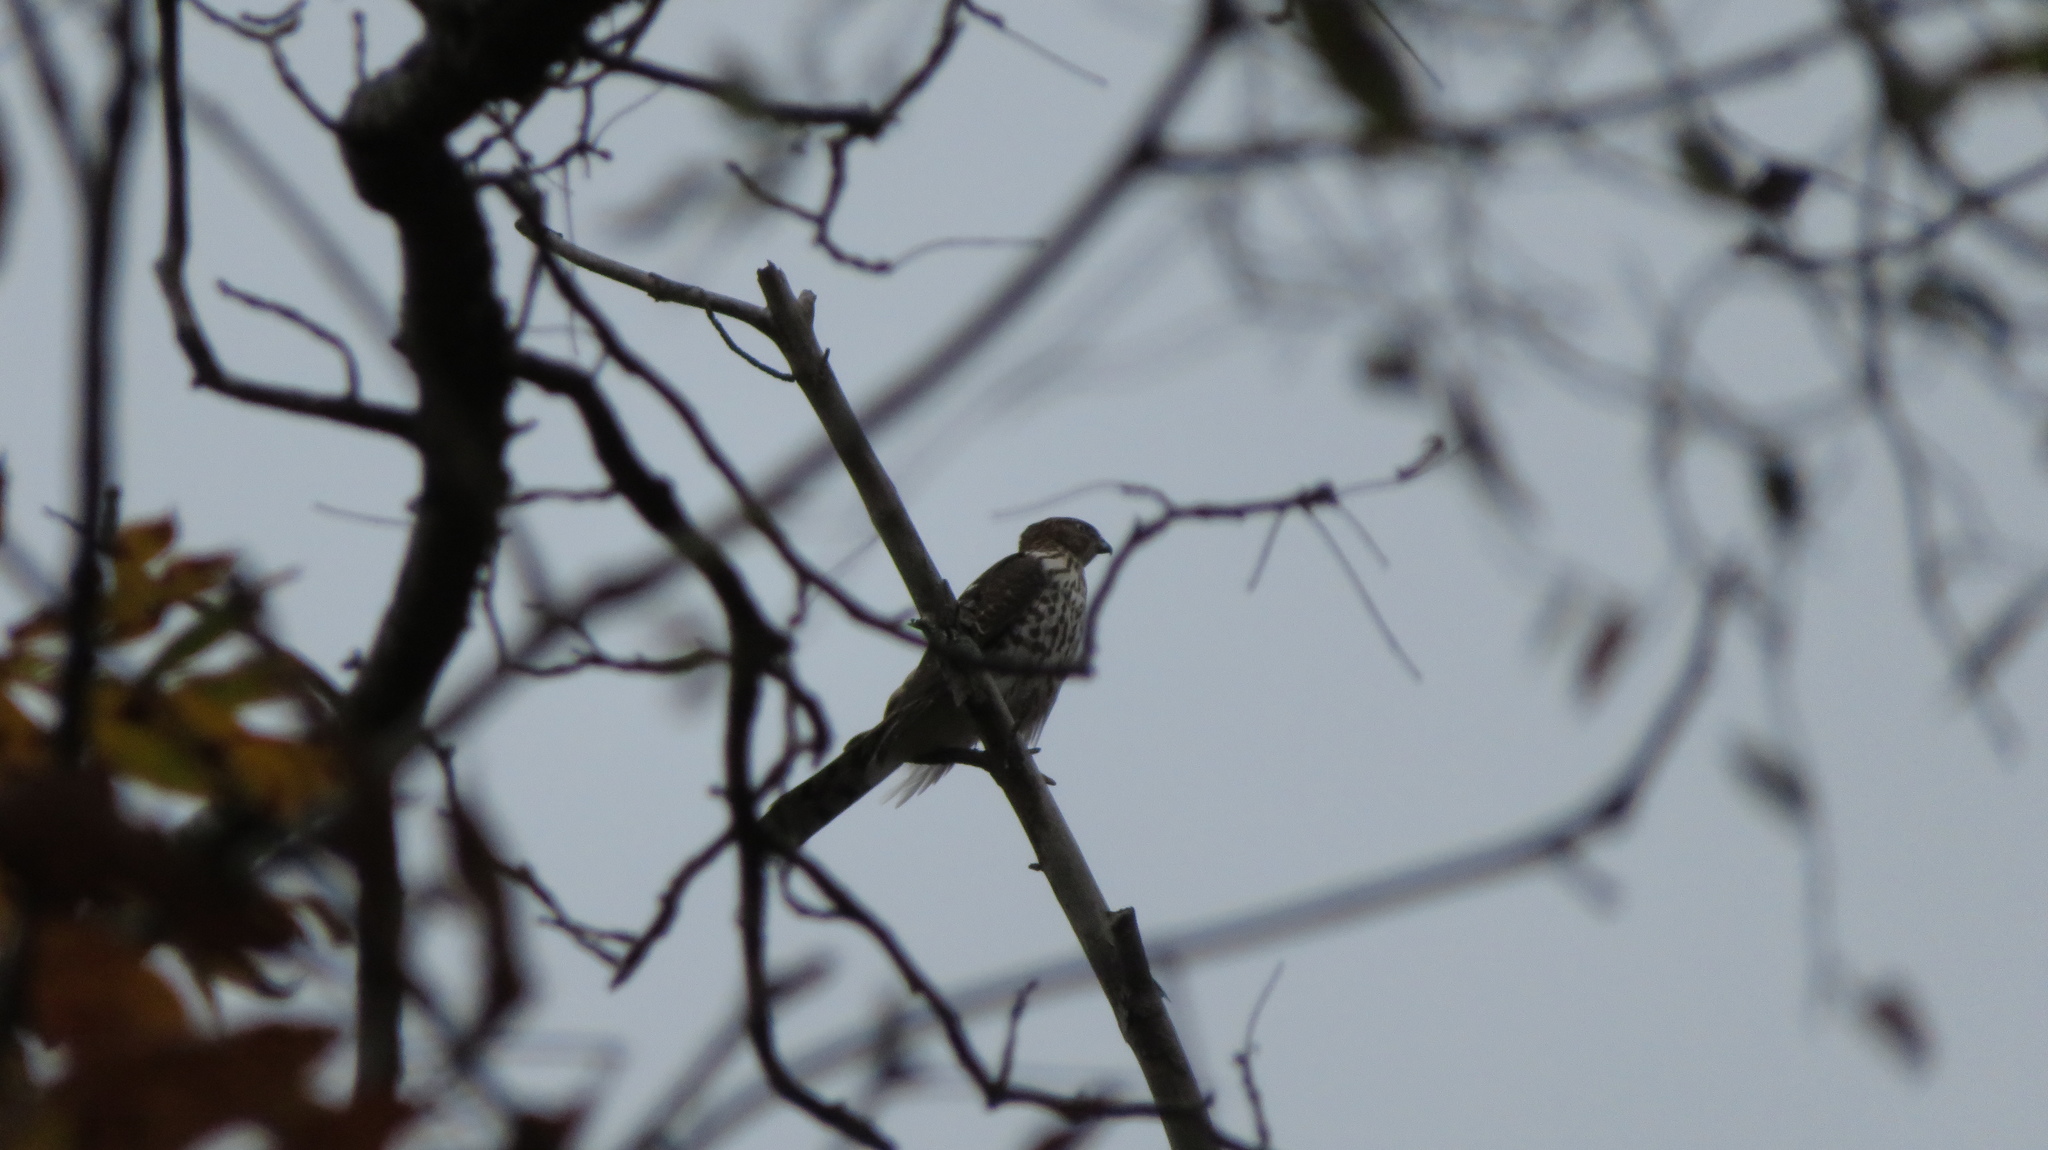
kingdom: Animalia
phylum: Chordata
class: Aves
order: Accipitriformes
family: Accipitridae
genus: Accipiter
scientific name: Accipiter cooperii
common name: Cooper's hawk
